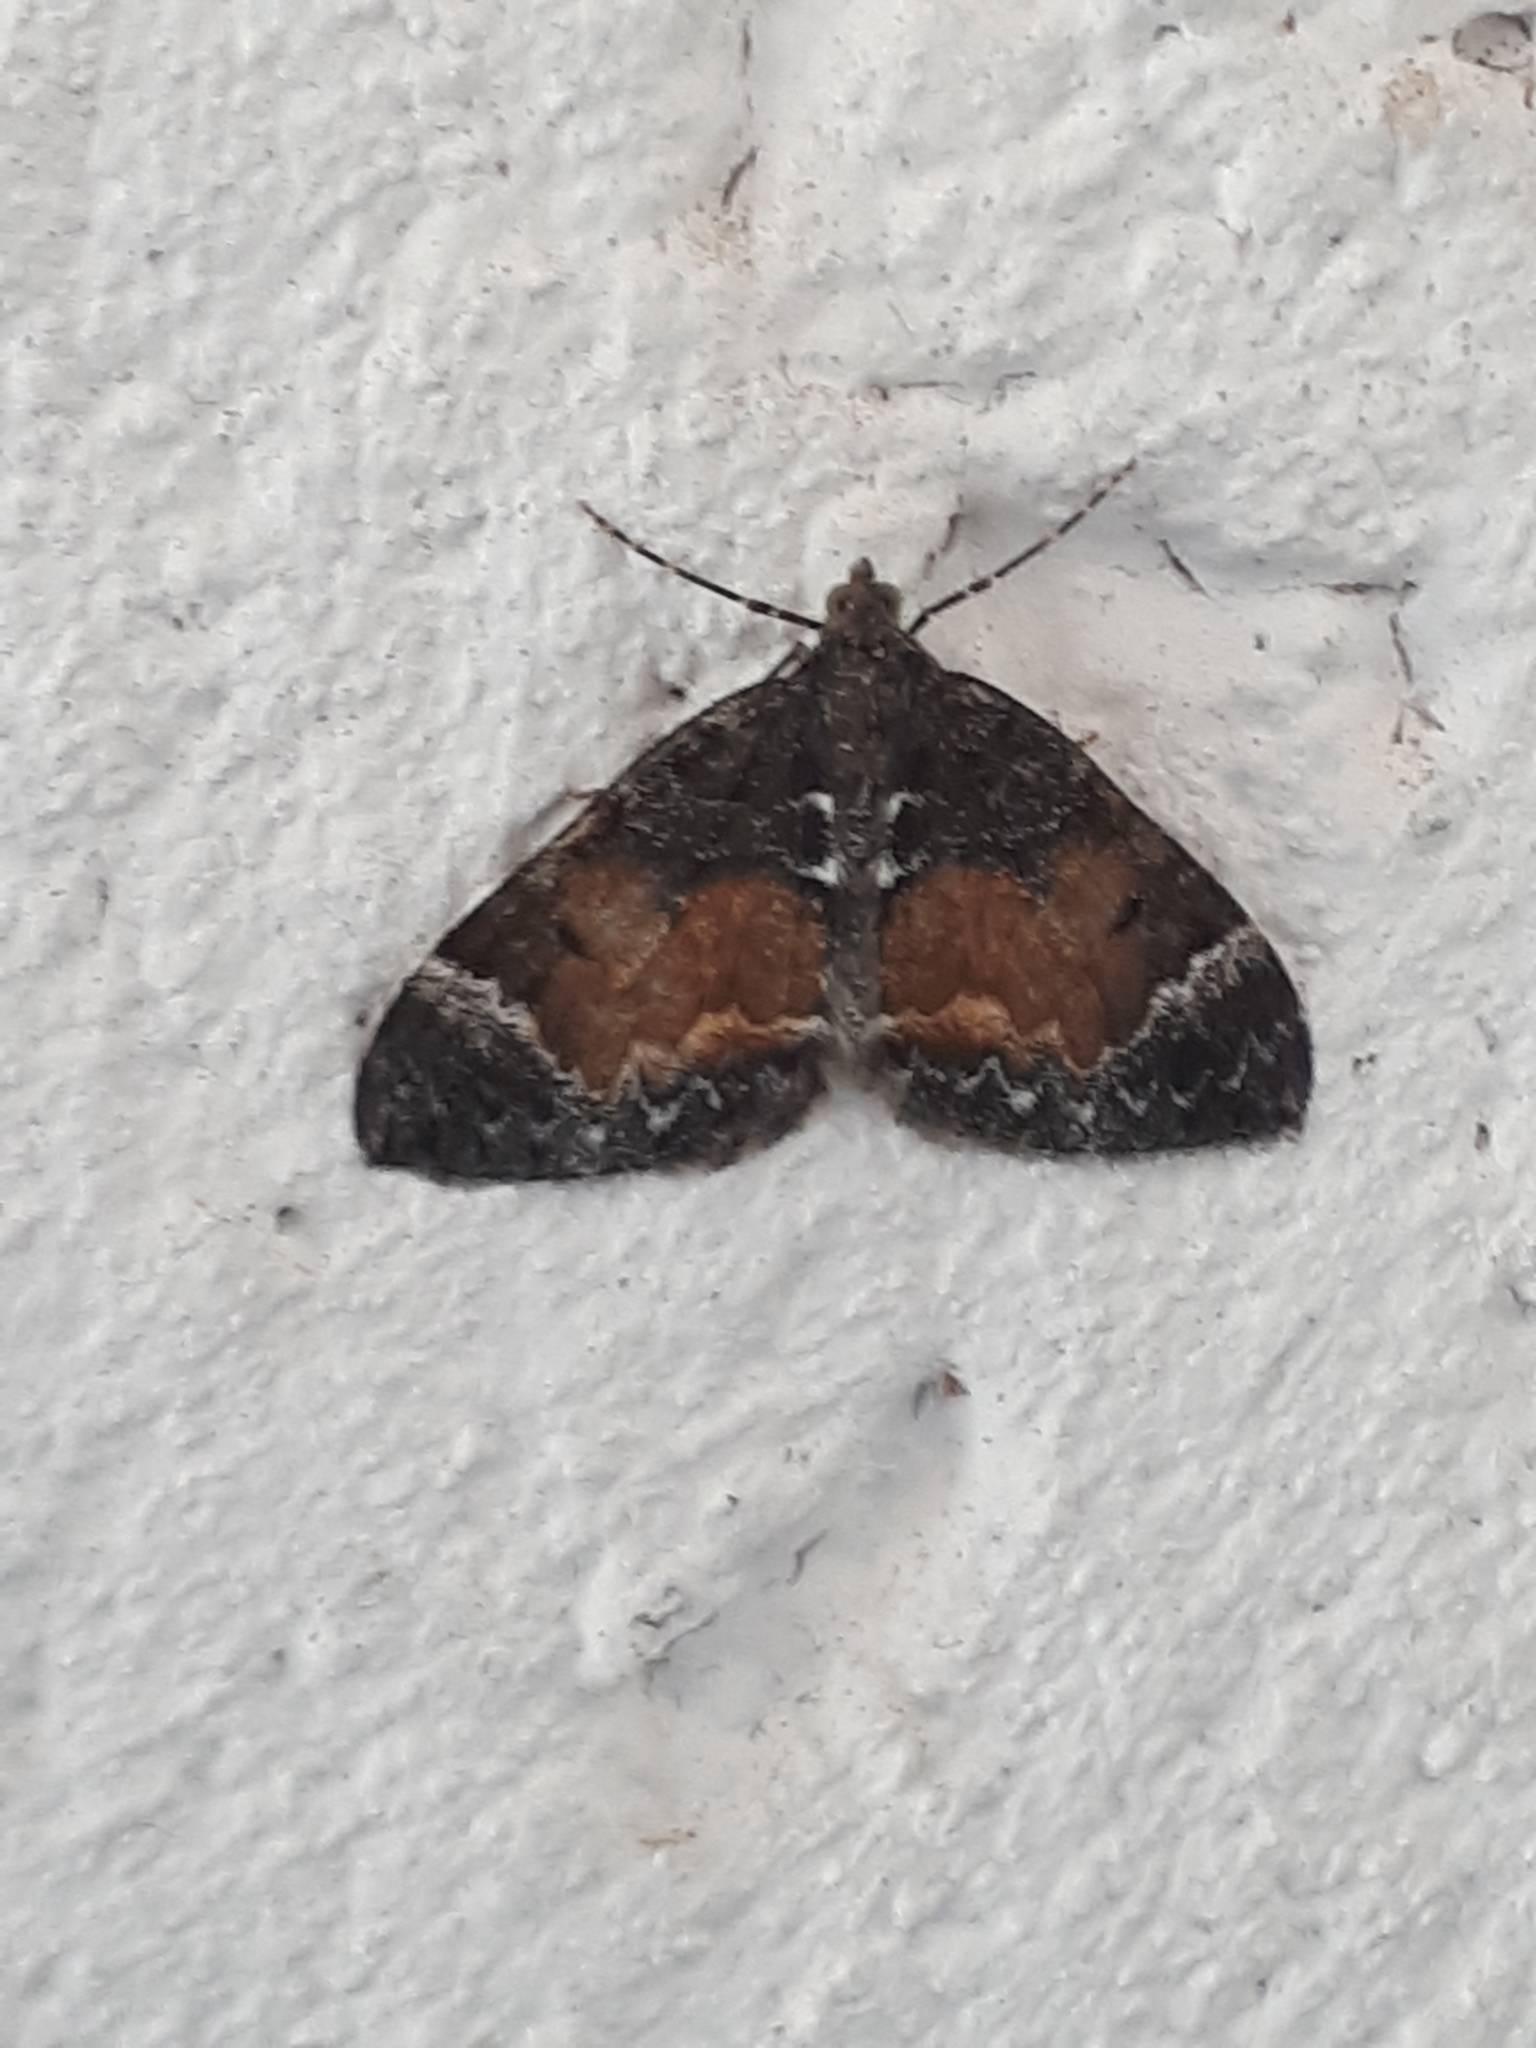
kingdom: Animalia
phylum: Arthropoda
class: Insecta
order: Lepidoptera
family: Geometridae
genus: Dysstroma
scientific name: Dysstroma truncata
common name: Common marbled carpet
